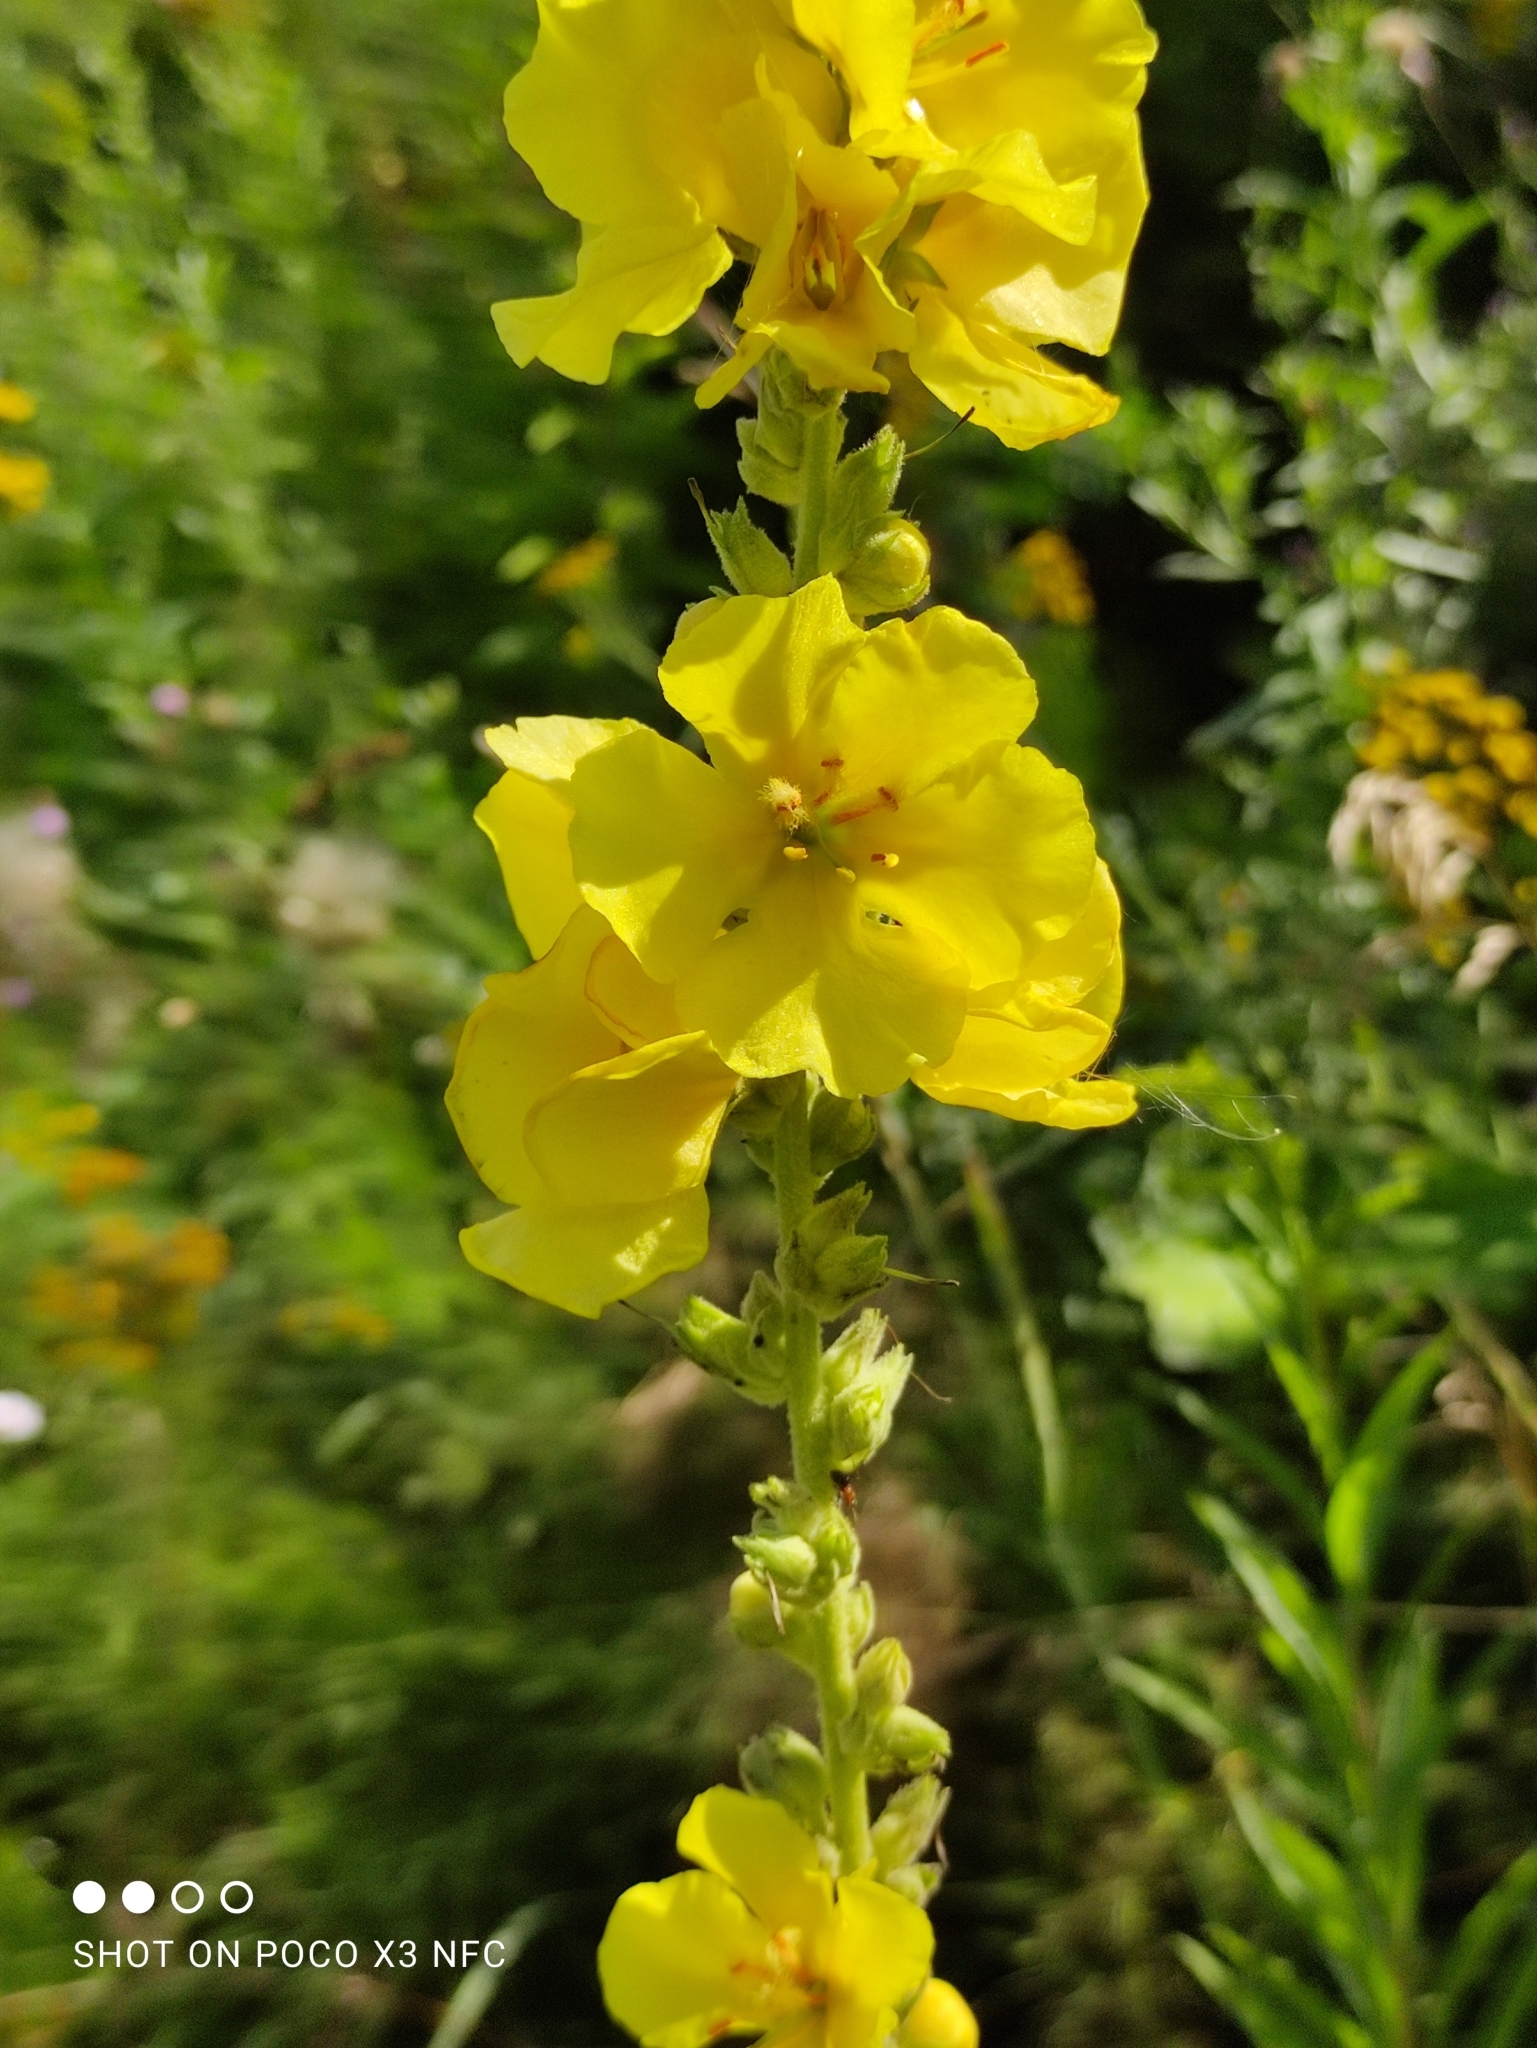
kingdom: Plantae
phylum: Tracheophyta
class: Magnoliopsida
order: Lamiales
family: Scrophulariaceae
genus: Verbascum
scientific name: Verbascum phlomoides
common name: Orange mullein
